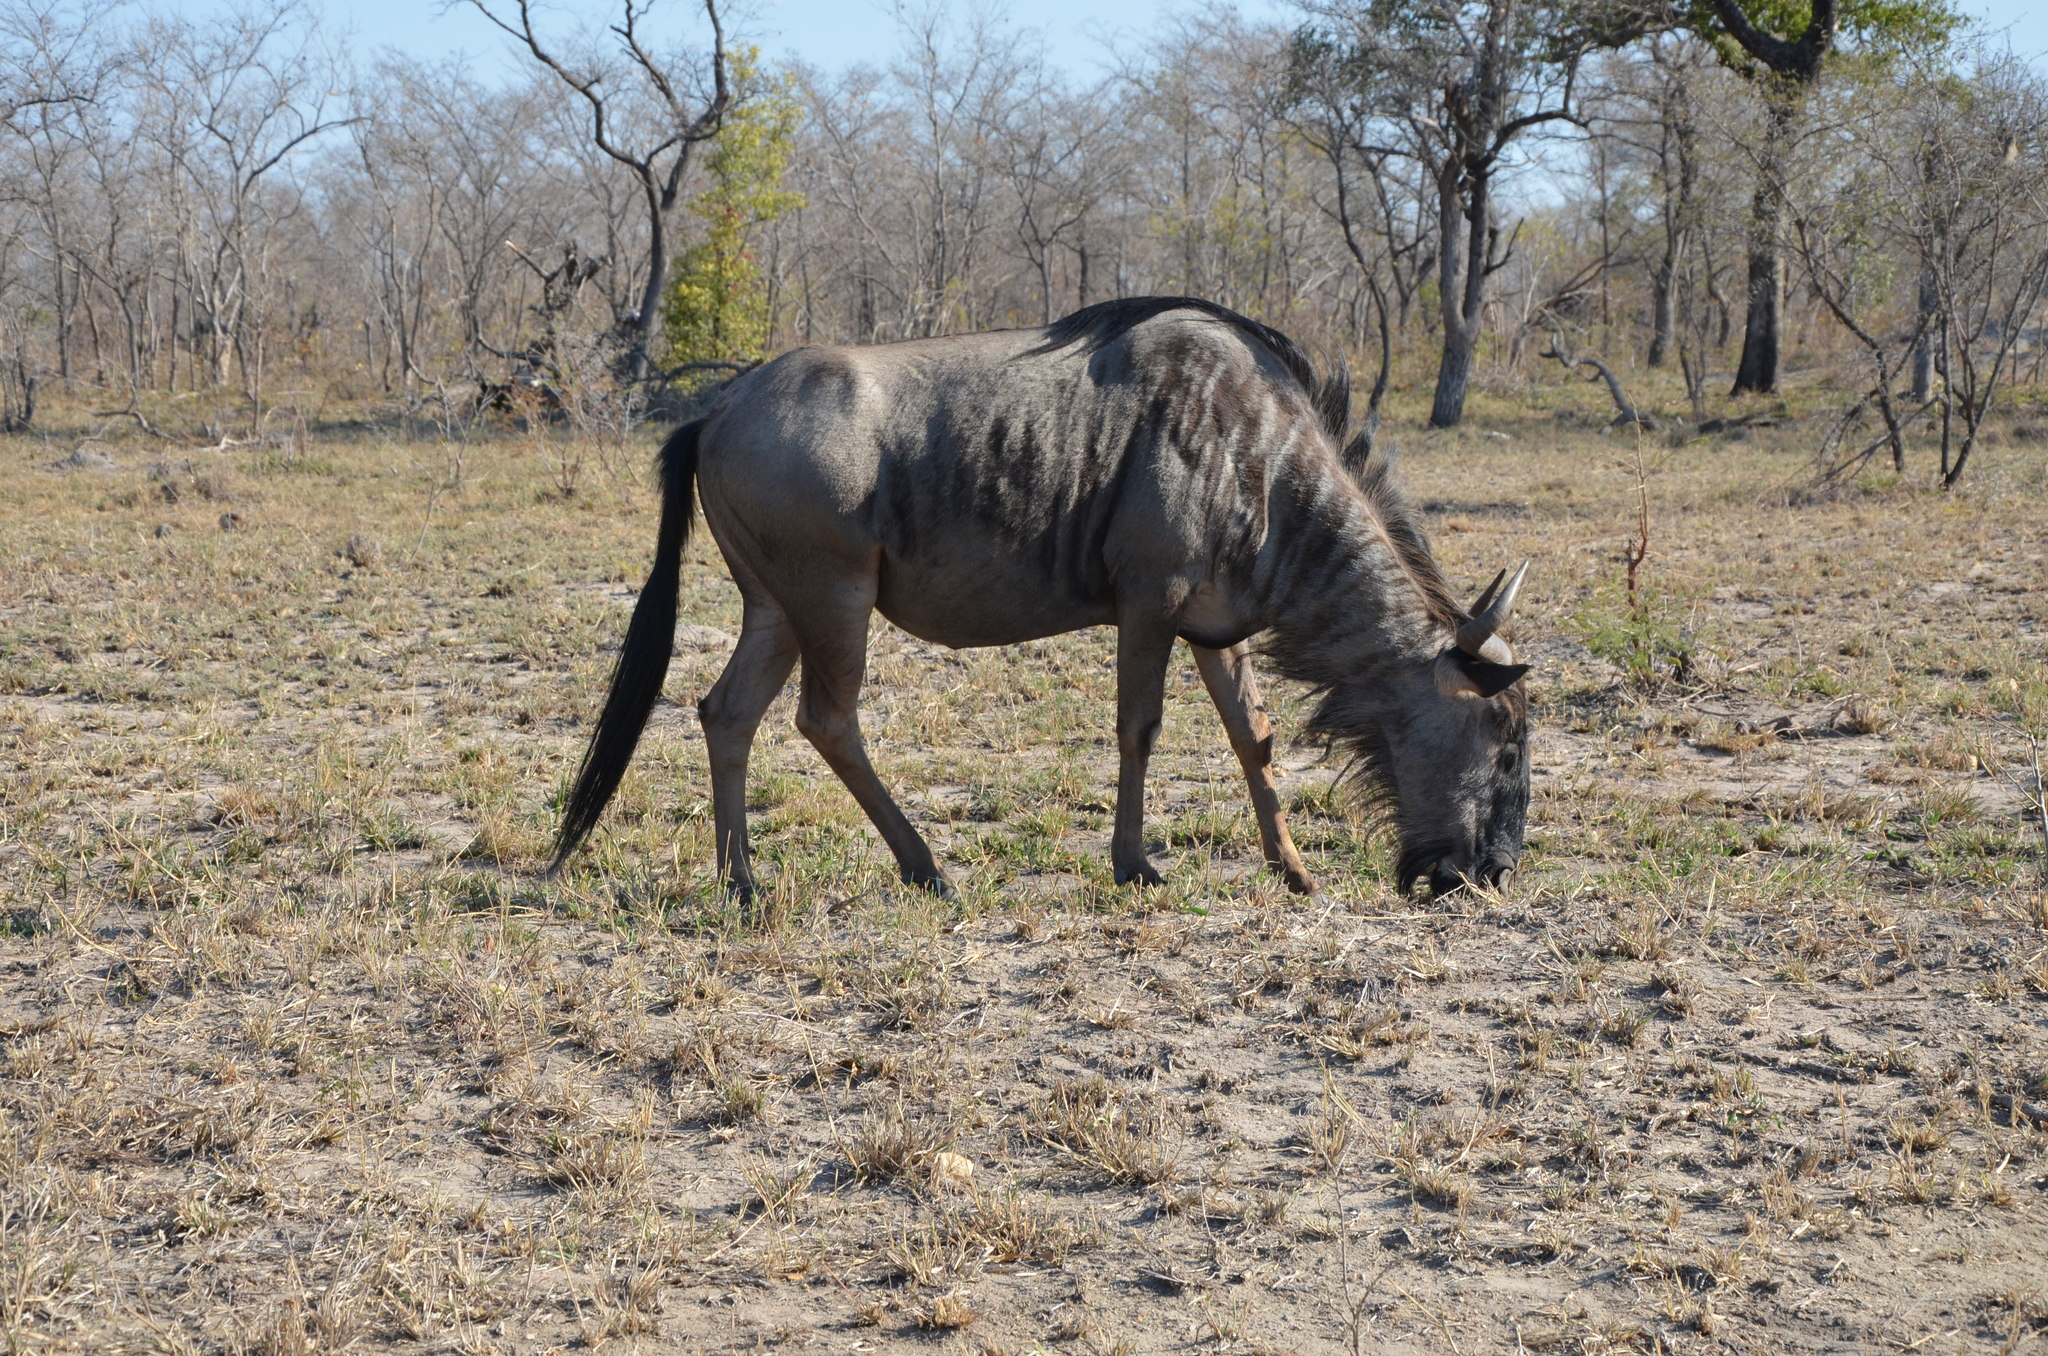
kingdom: Animalia
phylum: Chordata
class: Mammalia
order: Artiodactyla
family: Bovidae
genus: Connochaetes
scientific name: Connochaetes taurinus
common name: Blue wildebeest
